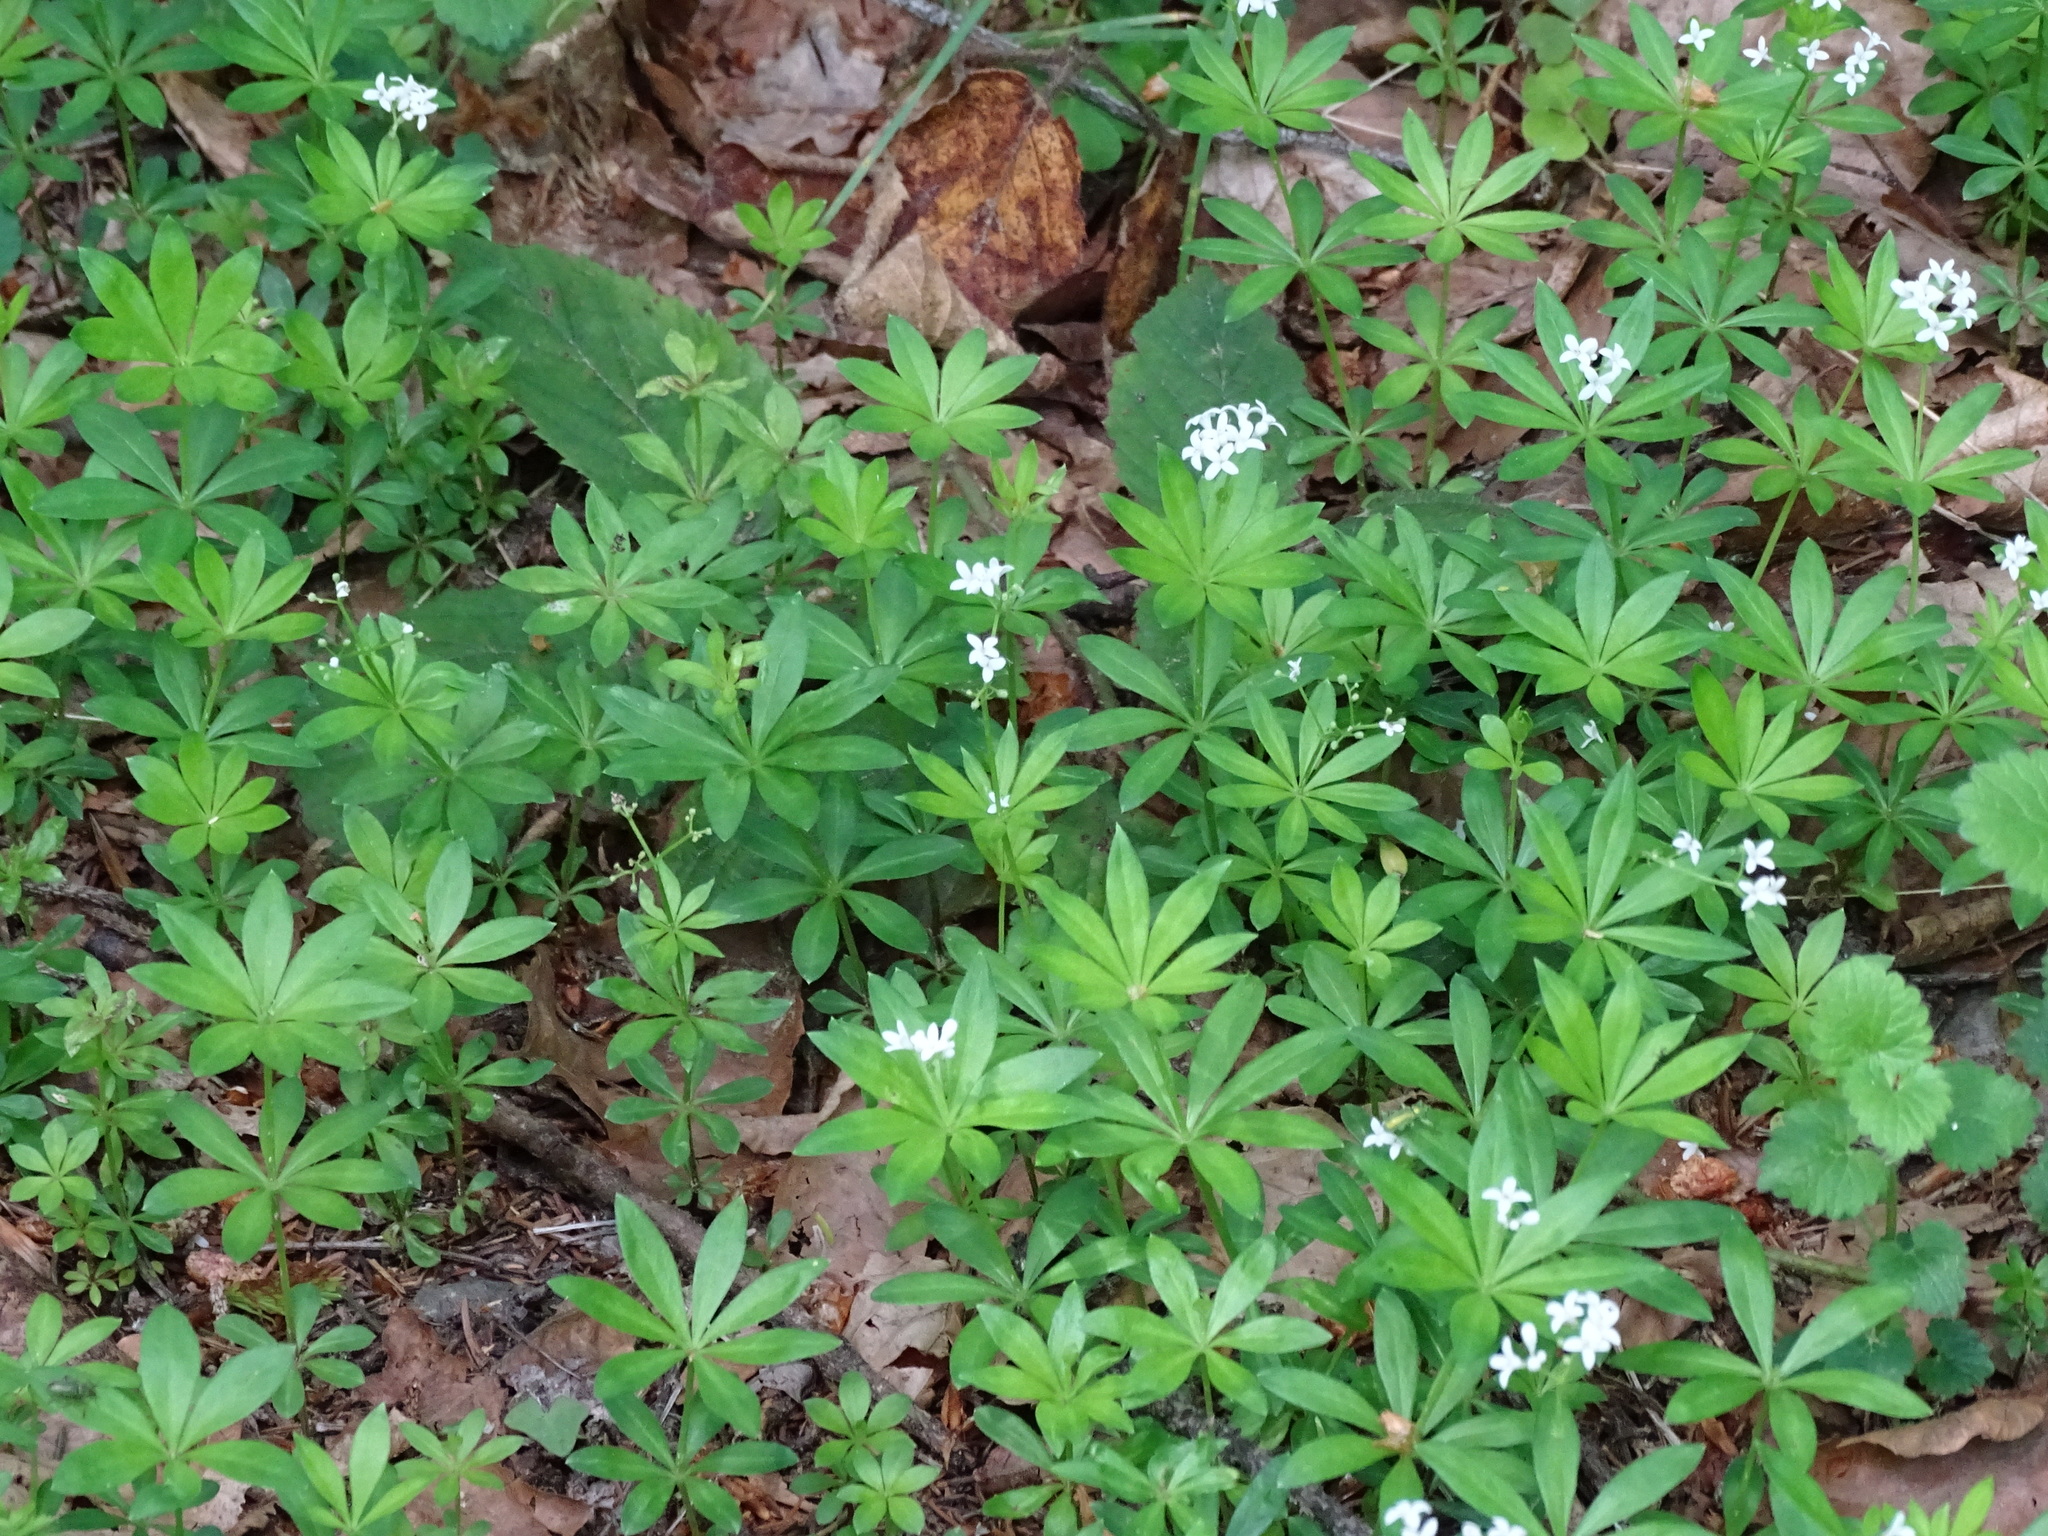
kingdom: Plantae
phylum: Tracheophyta
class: Magnoliopsida
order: Gentianales
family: Rubiaceae
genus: Galium
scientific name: Galium odoratum
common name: Sweet woodruff
